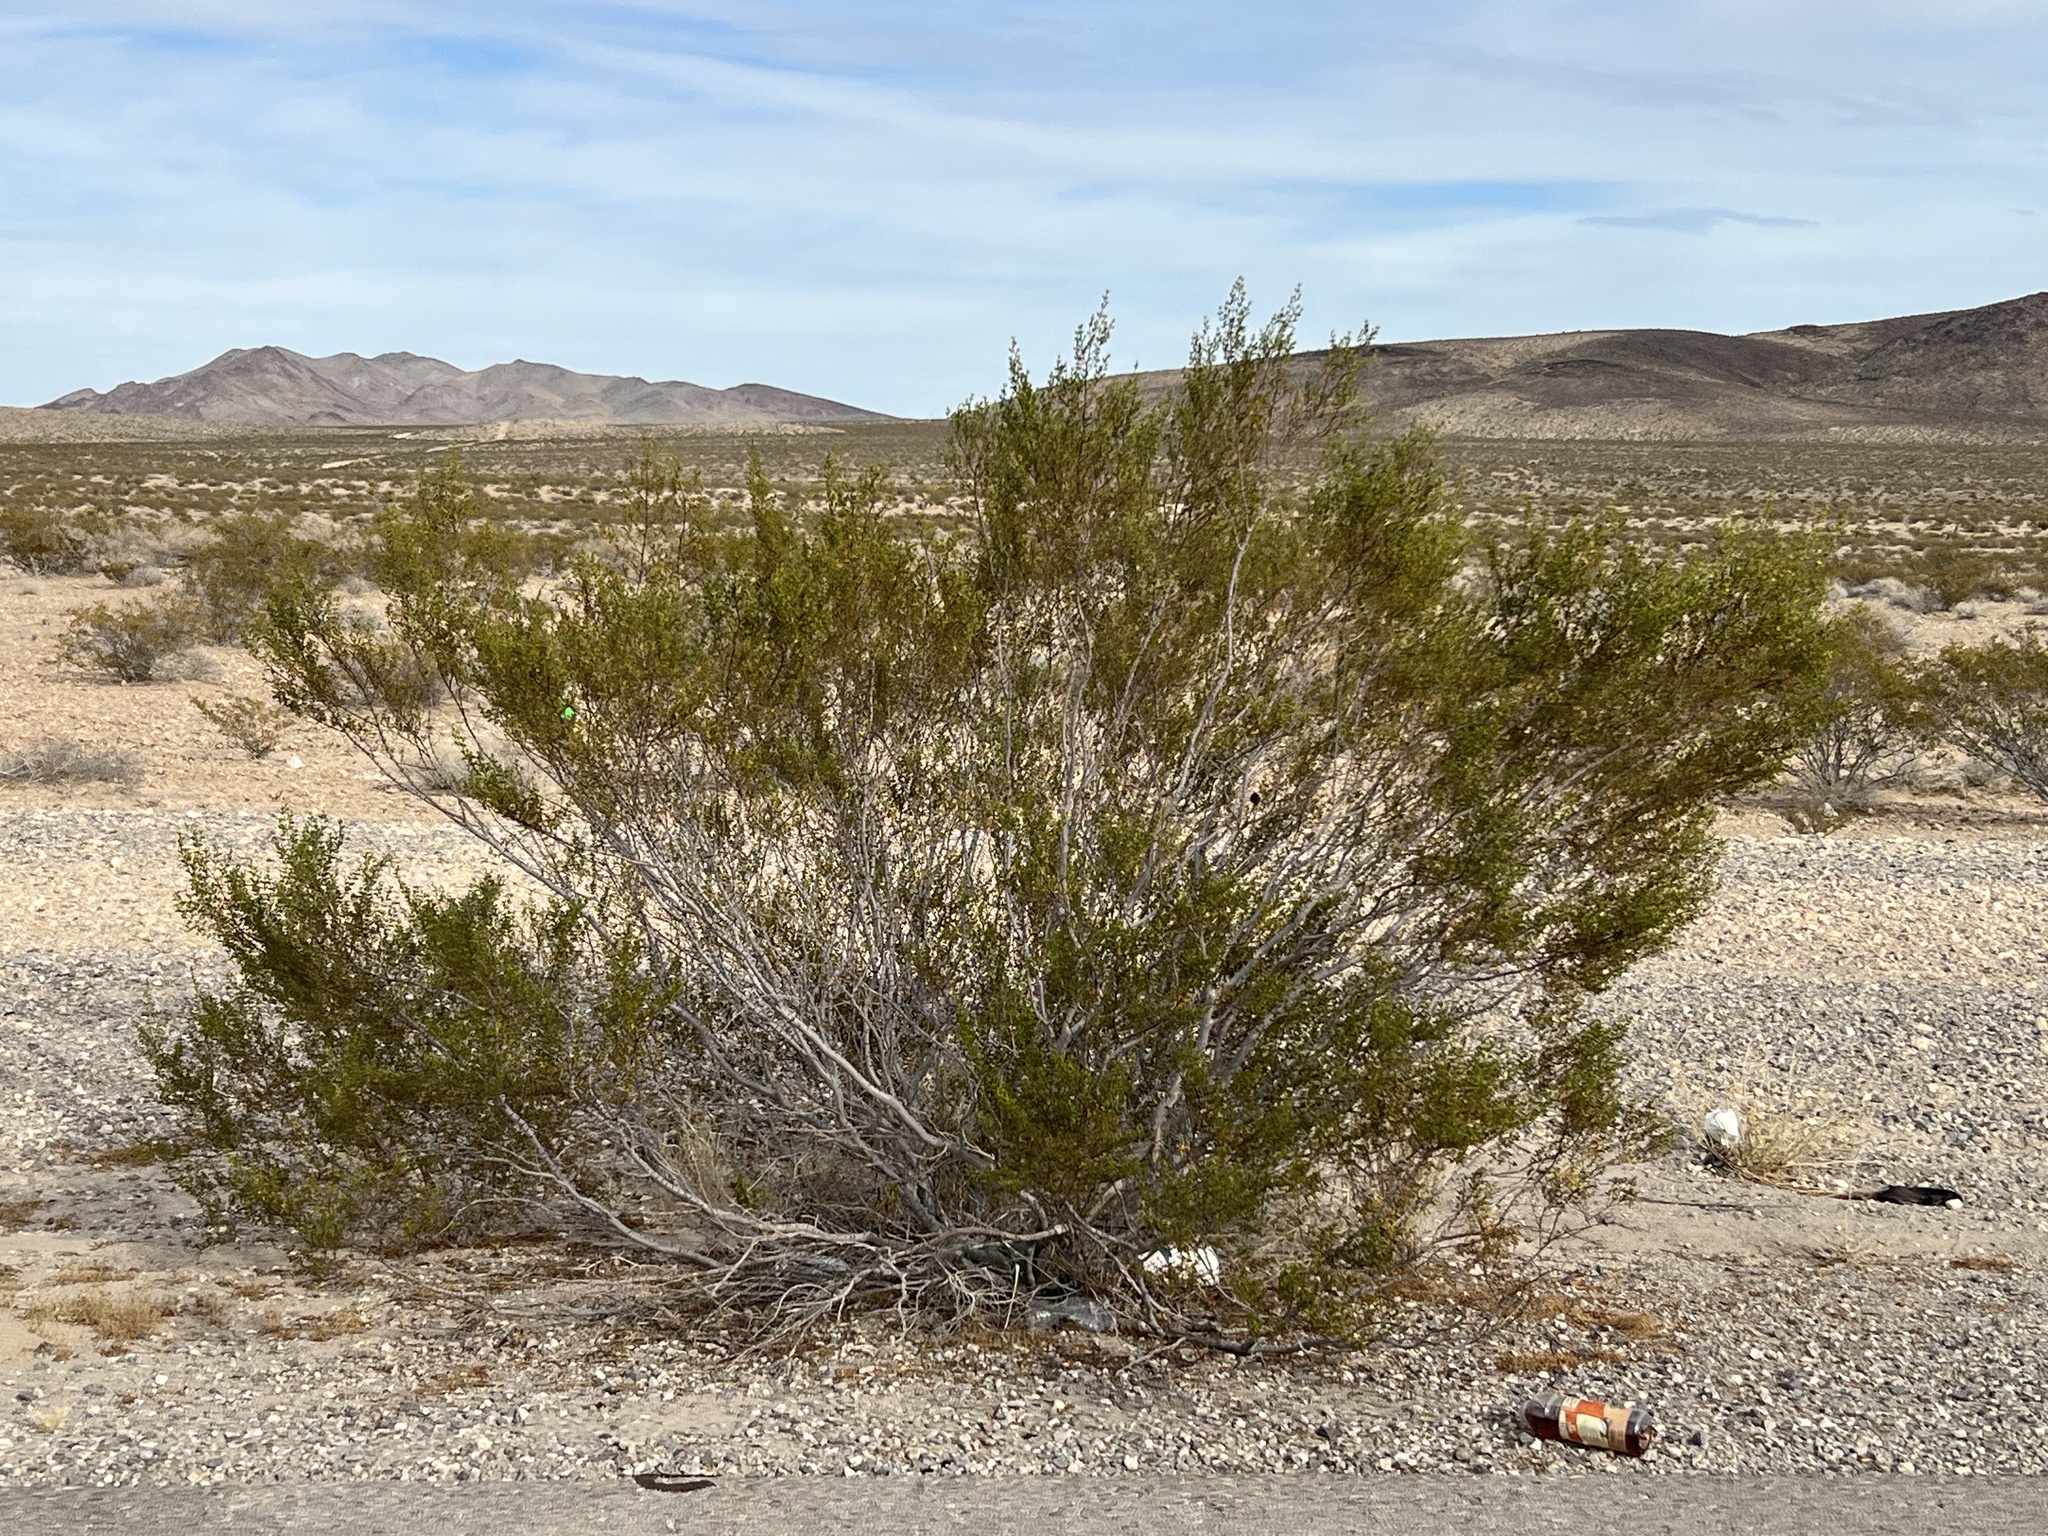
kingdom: Plantae
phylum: Tracheophyta
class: Magnoliopsida
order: Zygophyllales
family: Zygophyllaceae
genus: Larrea
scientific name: Larrea tridentata
